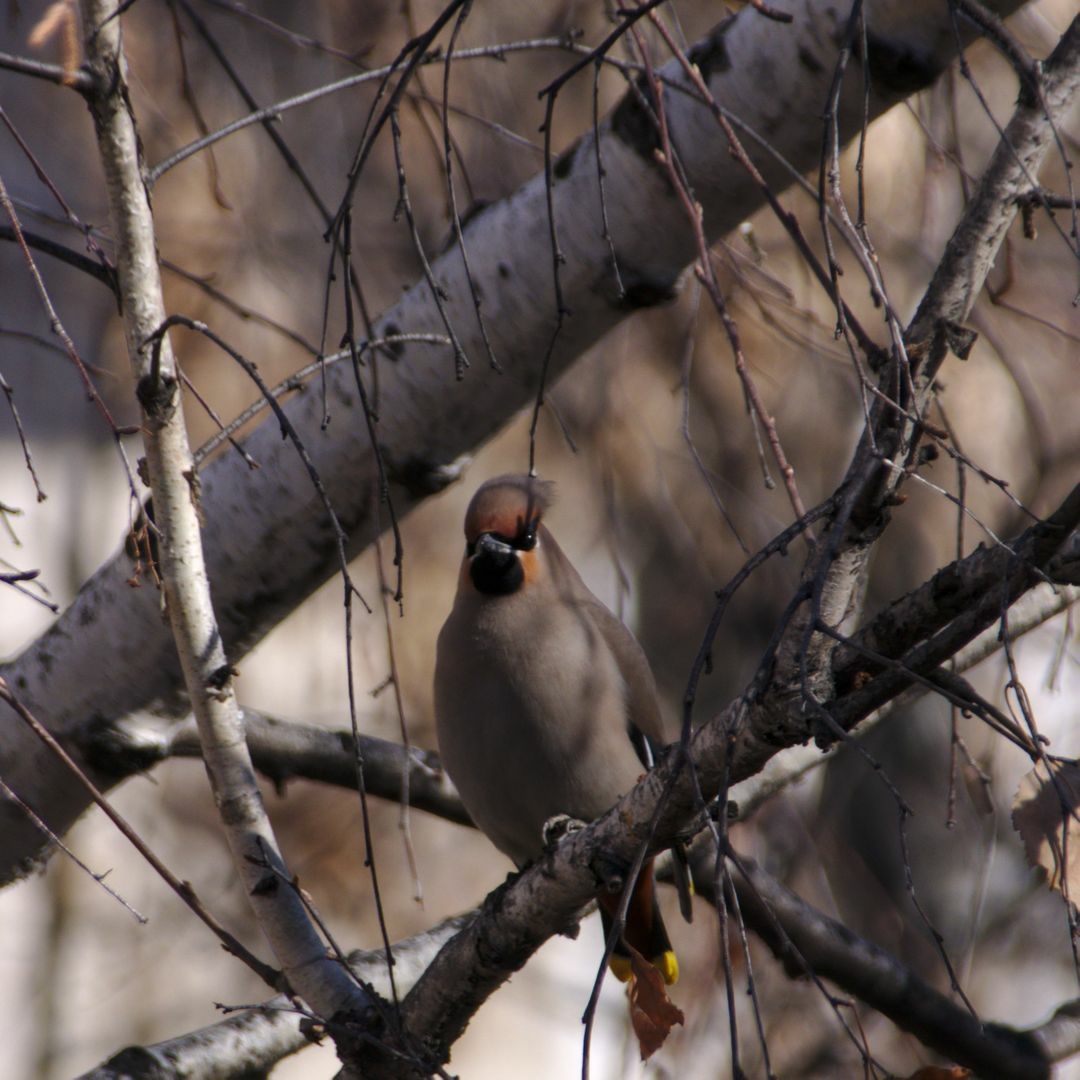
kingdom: Animalia
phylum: Chordata
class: Aves
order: Passeriformes
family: Bombycillidae
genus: Bombycilla
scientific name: Bombycilla garrulus
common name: Bohemian waxwing
